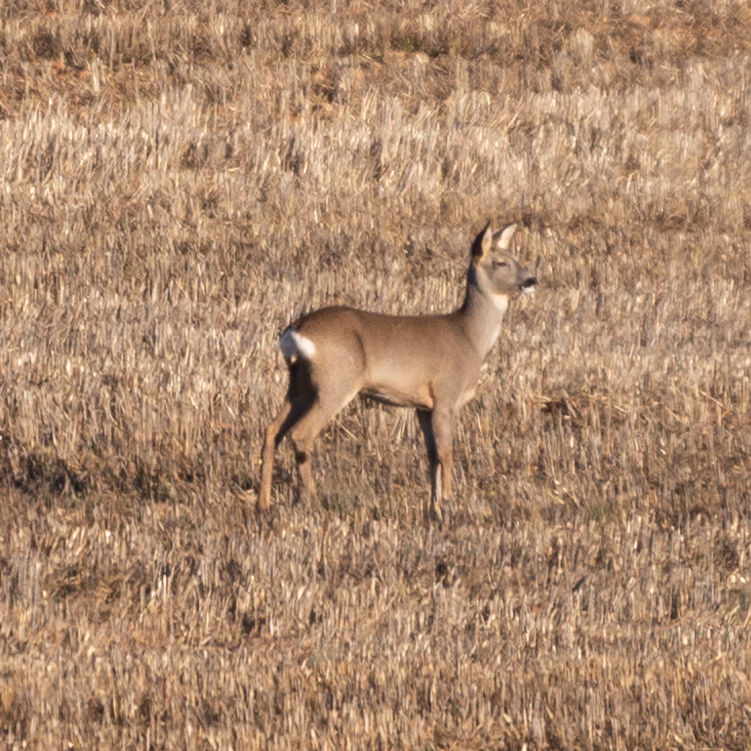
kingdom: Animalia
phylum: Chordata
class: Mammalia
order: Artiodactyla
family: Cervidae
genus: Capreolus
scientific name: Capreolus capreolus
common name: Western roe deer
